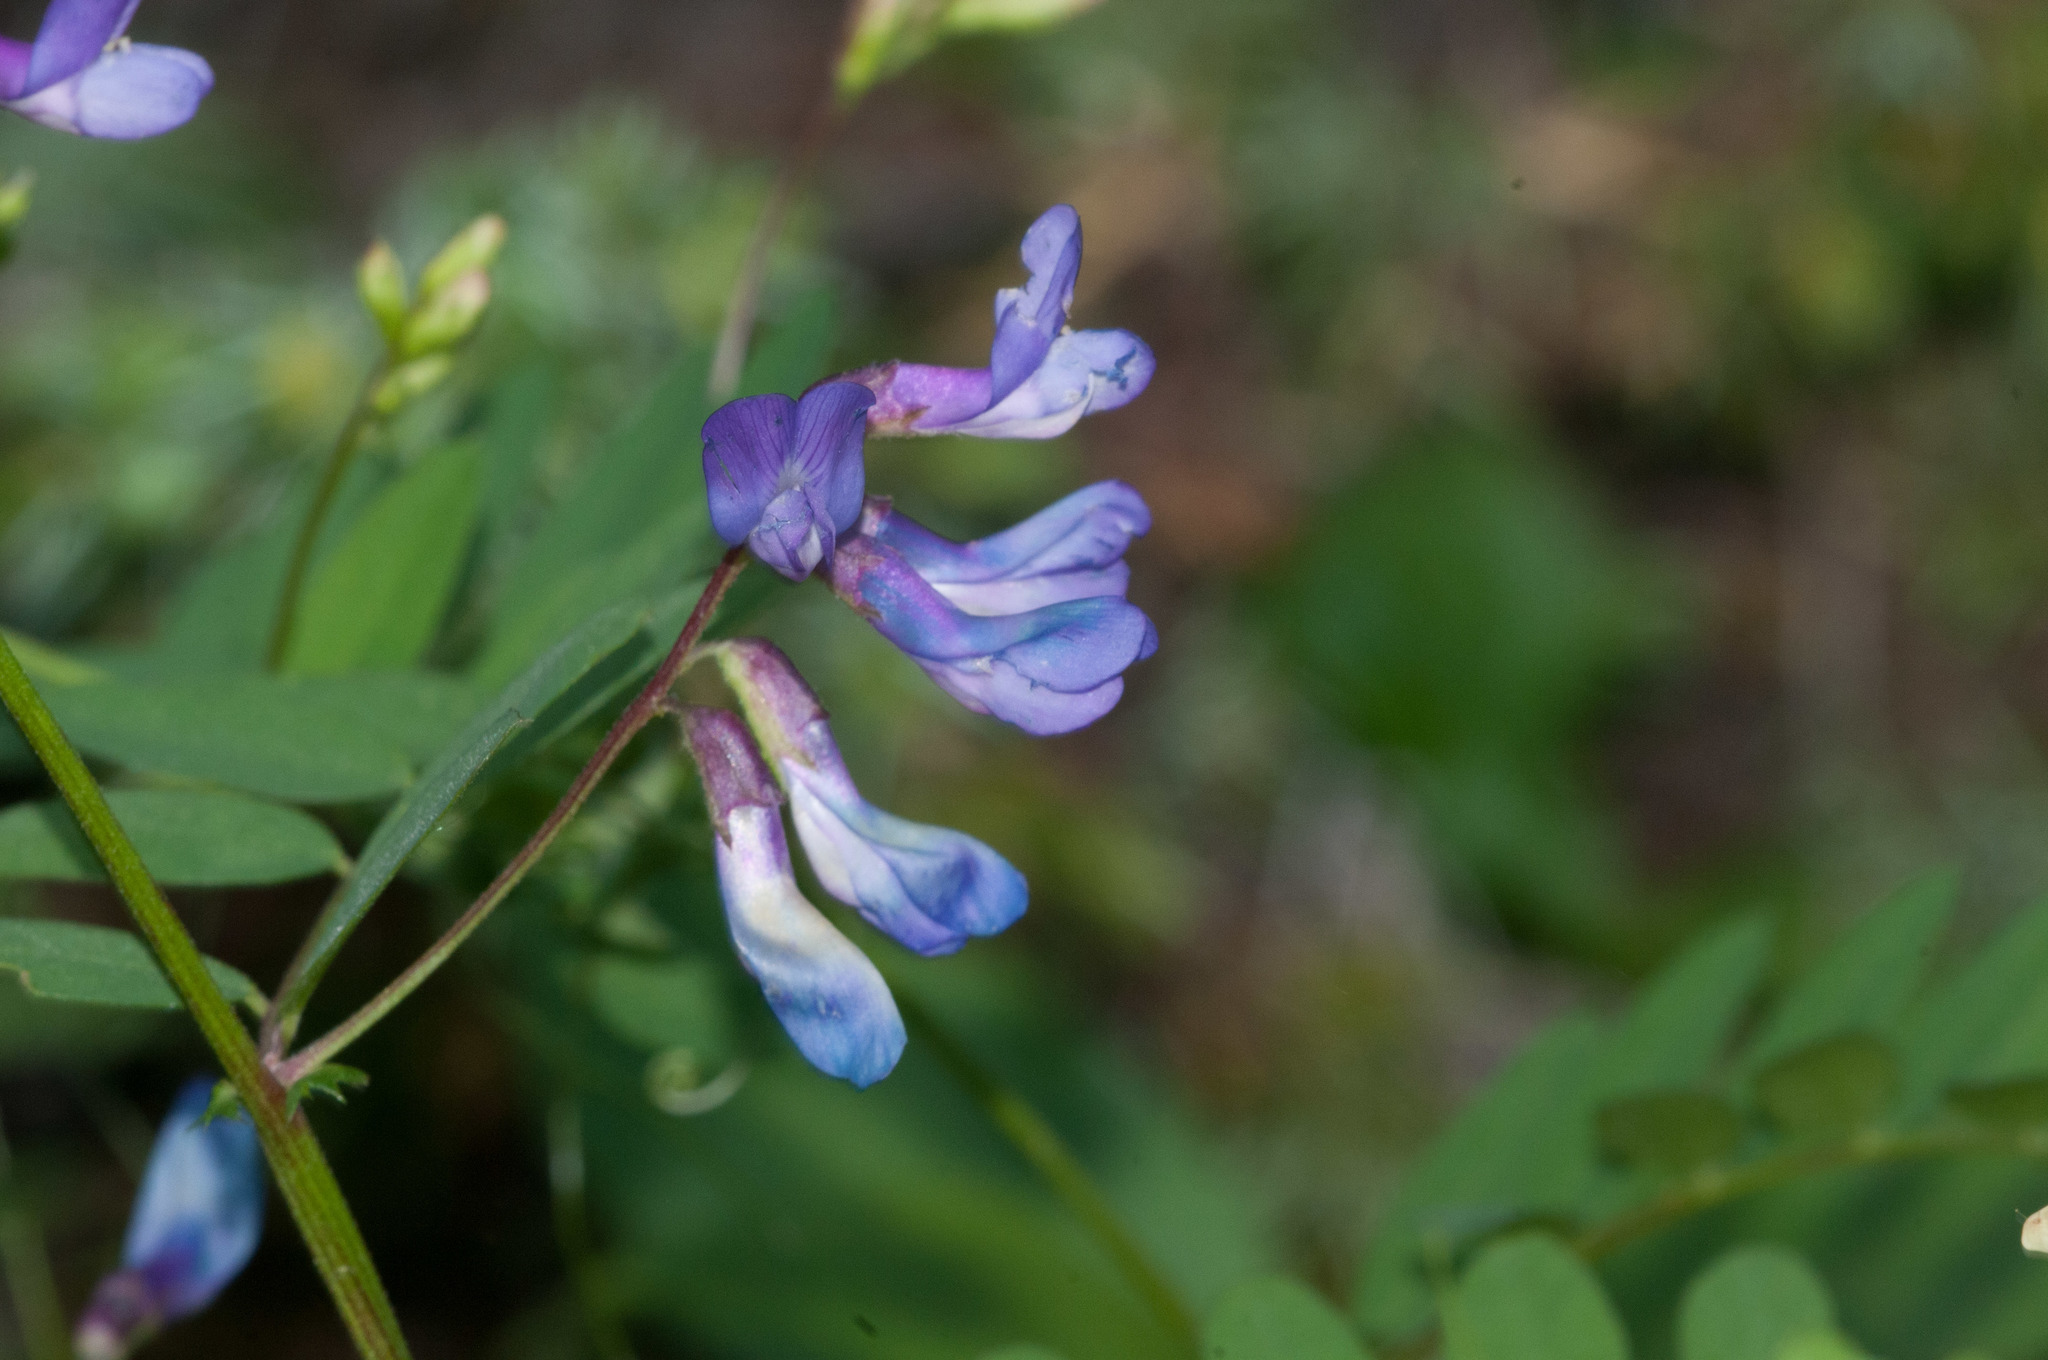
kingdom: Plantae
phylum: Tracheophyta
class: Magnoliopsida
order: Fabales
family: Fabaceae
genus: Vicia
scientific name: Vicia americana
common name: American vetch
